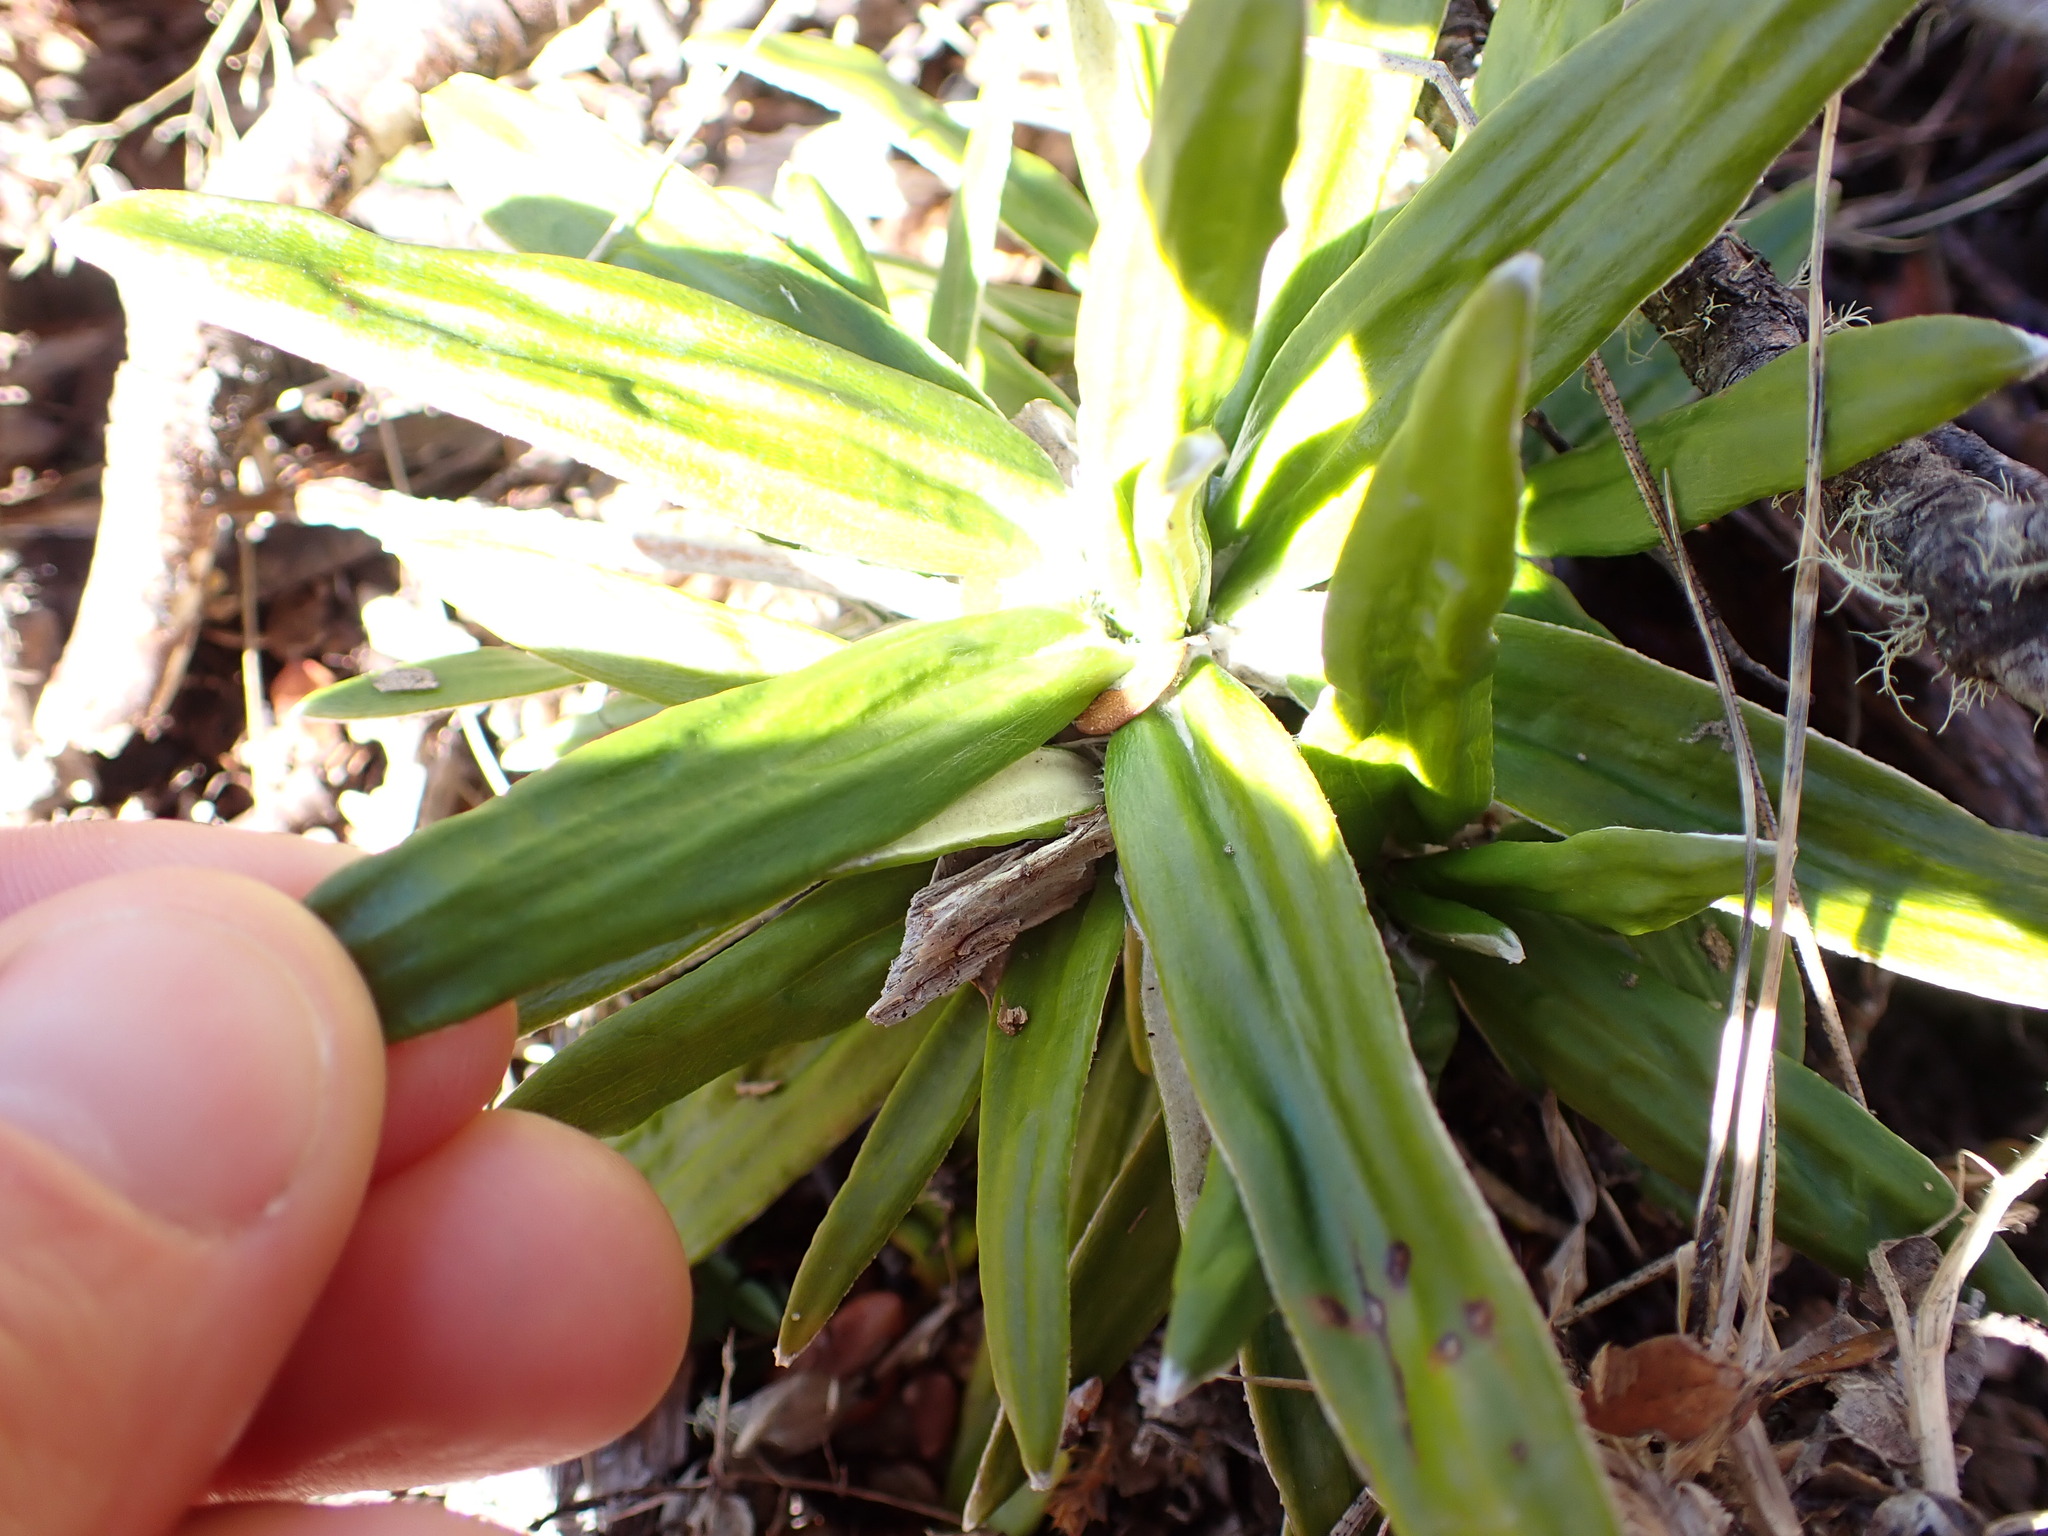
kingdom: Plantae
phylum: Tracheophyta
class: Magnoliopsida
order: Asterales
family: Asteraceae
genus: Celmisia
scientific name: Celmisia spectabilis
